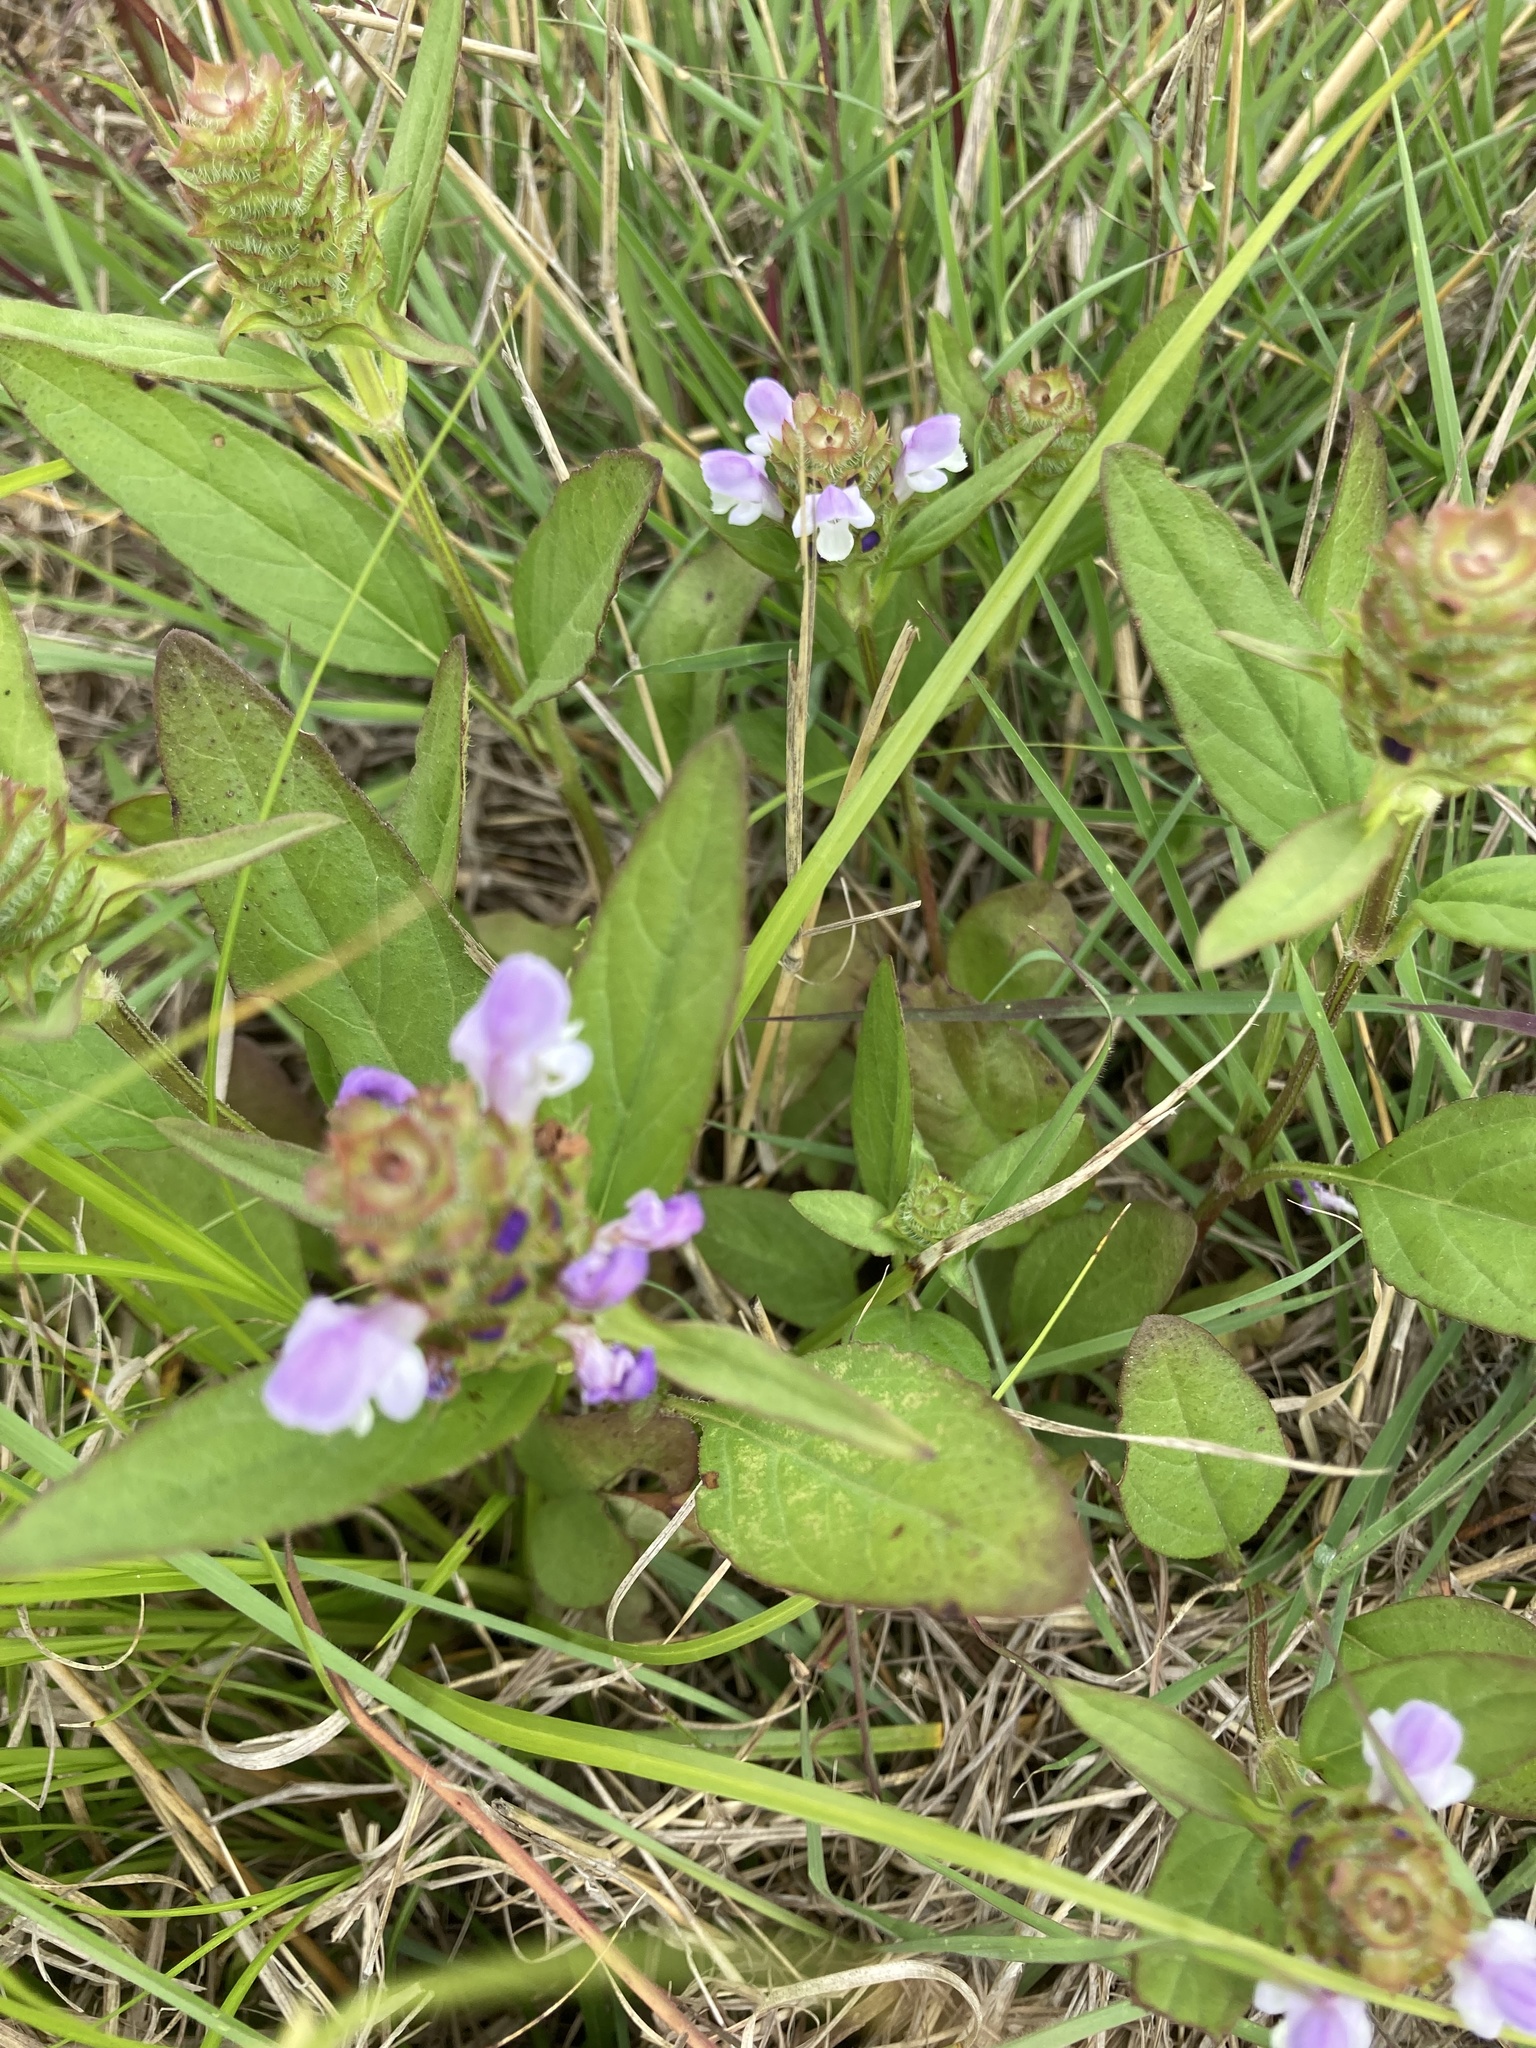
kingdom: Plantae
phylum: Tracheophyta
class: Magnoliopsida
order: Lamiales
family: Lamiaceae
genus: Prunella
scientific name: Prunella vulgaris
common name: Heal-all
